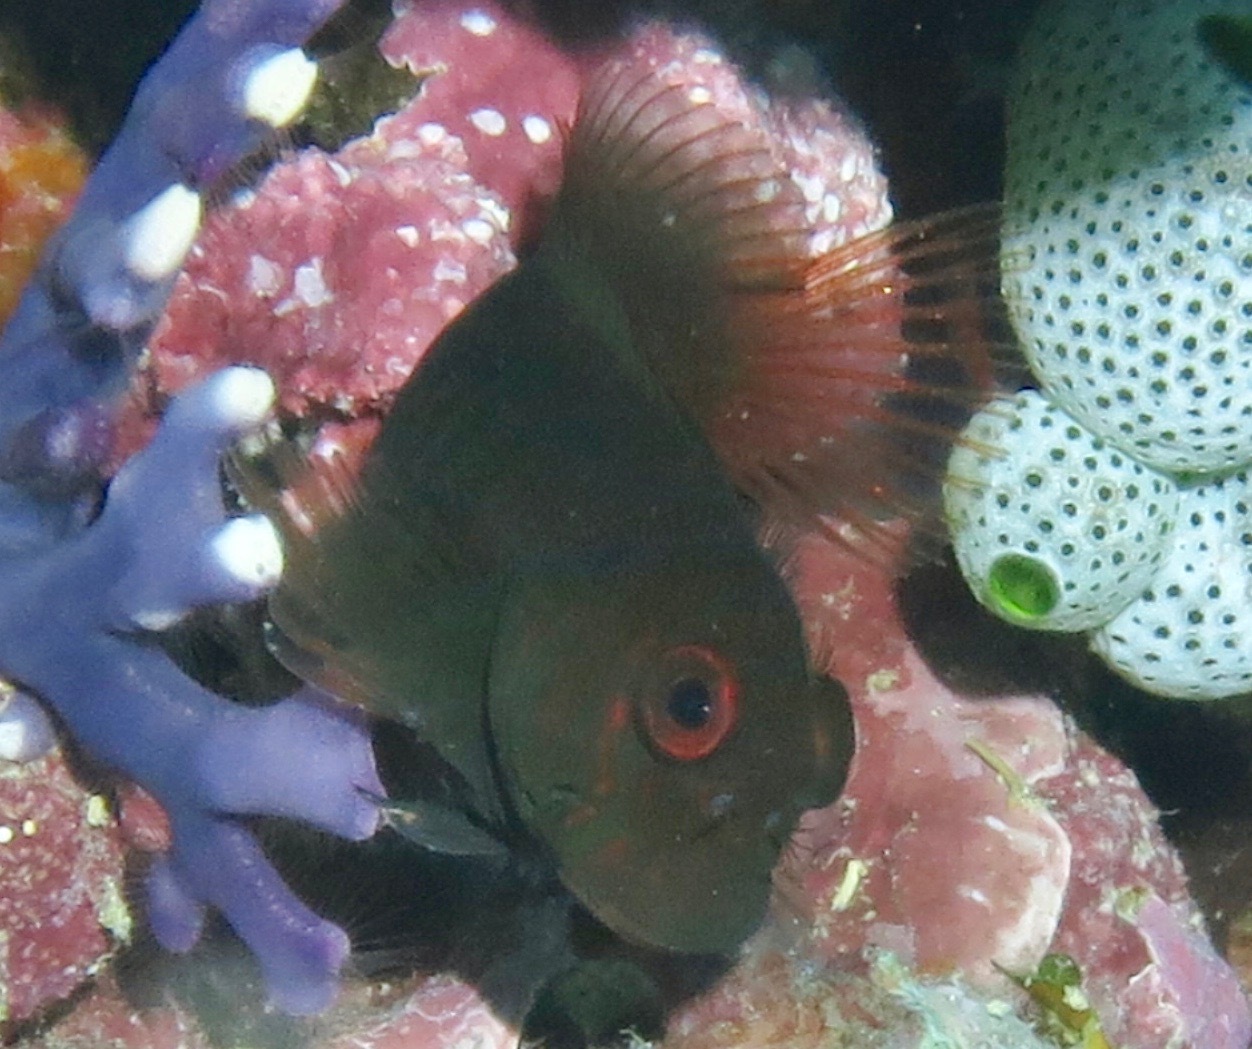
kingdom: Animalia
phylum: Chordata
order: Perciformes
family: Blenniidae
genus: Cirripectes
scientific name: Cirripectes castaneus
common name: Chestnut blenny
